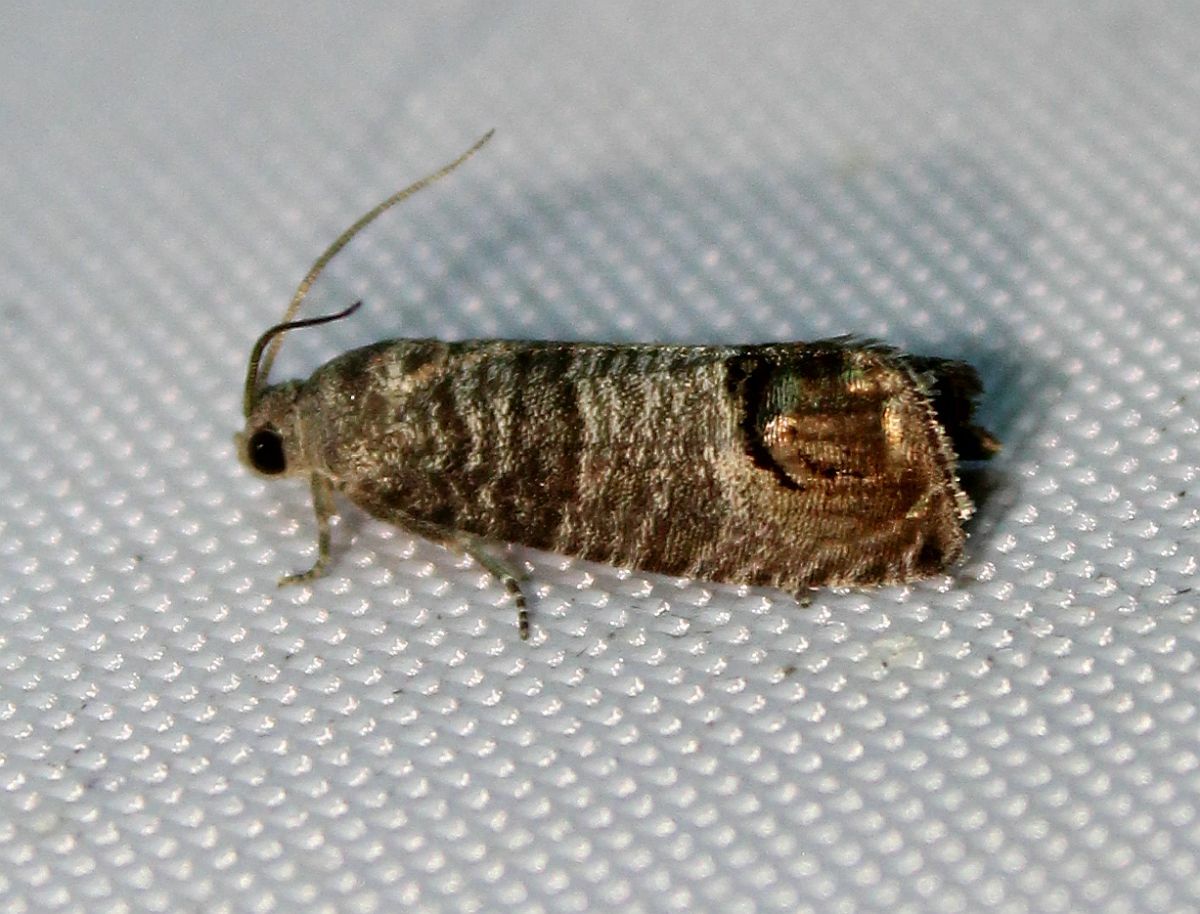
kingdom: Animalia
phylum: Arthropoda
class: Insecta
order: Lepidoptera
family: Tortricidae
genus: Cydia
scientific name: Cydia pomonella
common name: Codling moth
